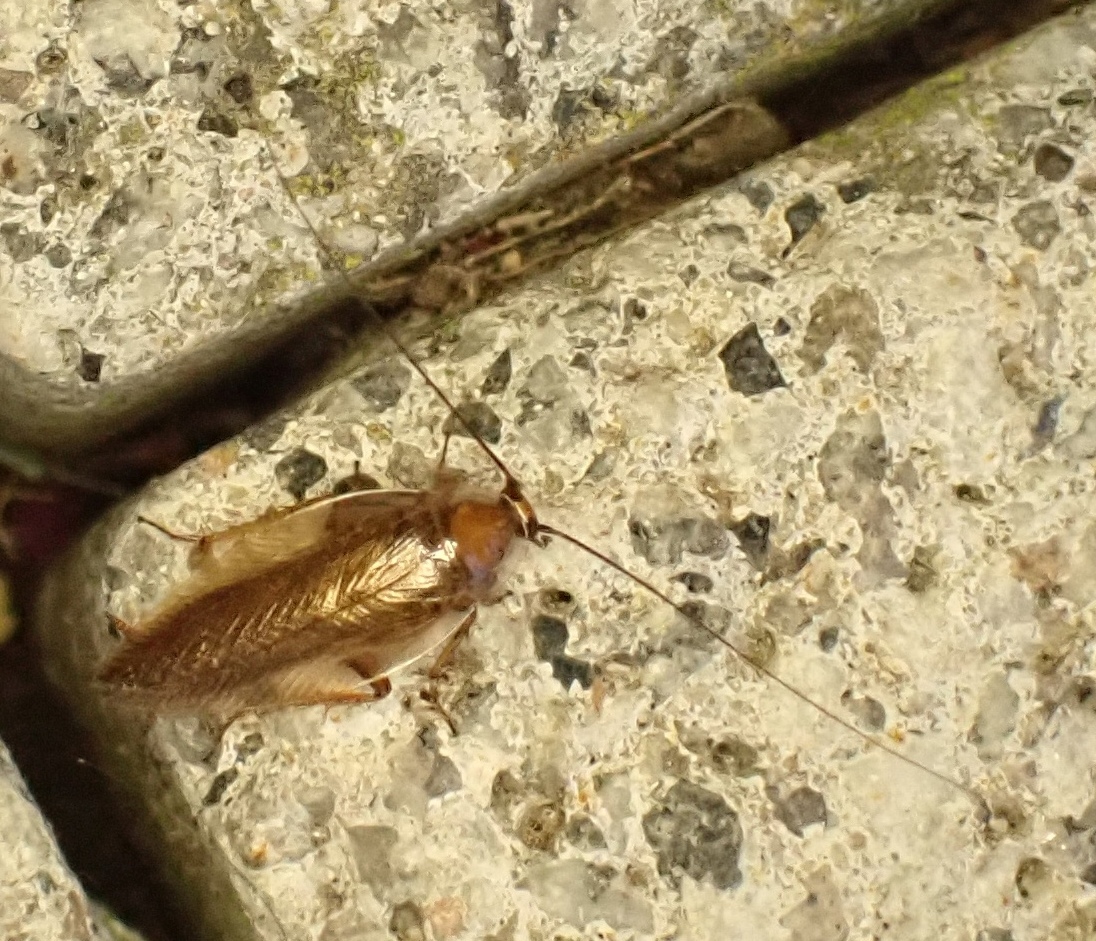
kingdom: Animalia
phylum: Arthropoda
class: Insecta
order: Blattodea
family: Ectobiidae
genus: Ectobius
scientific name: Ectobius vittiventris
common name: Garden cockroach
